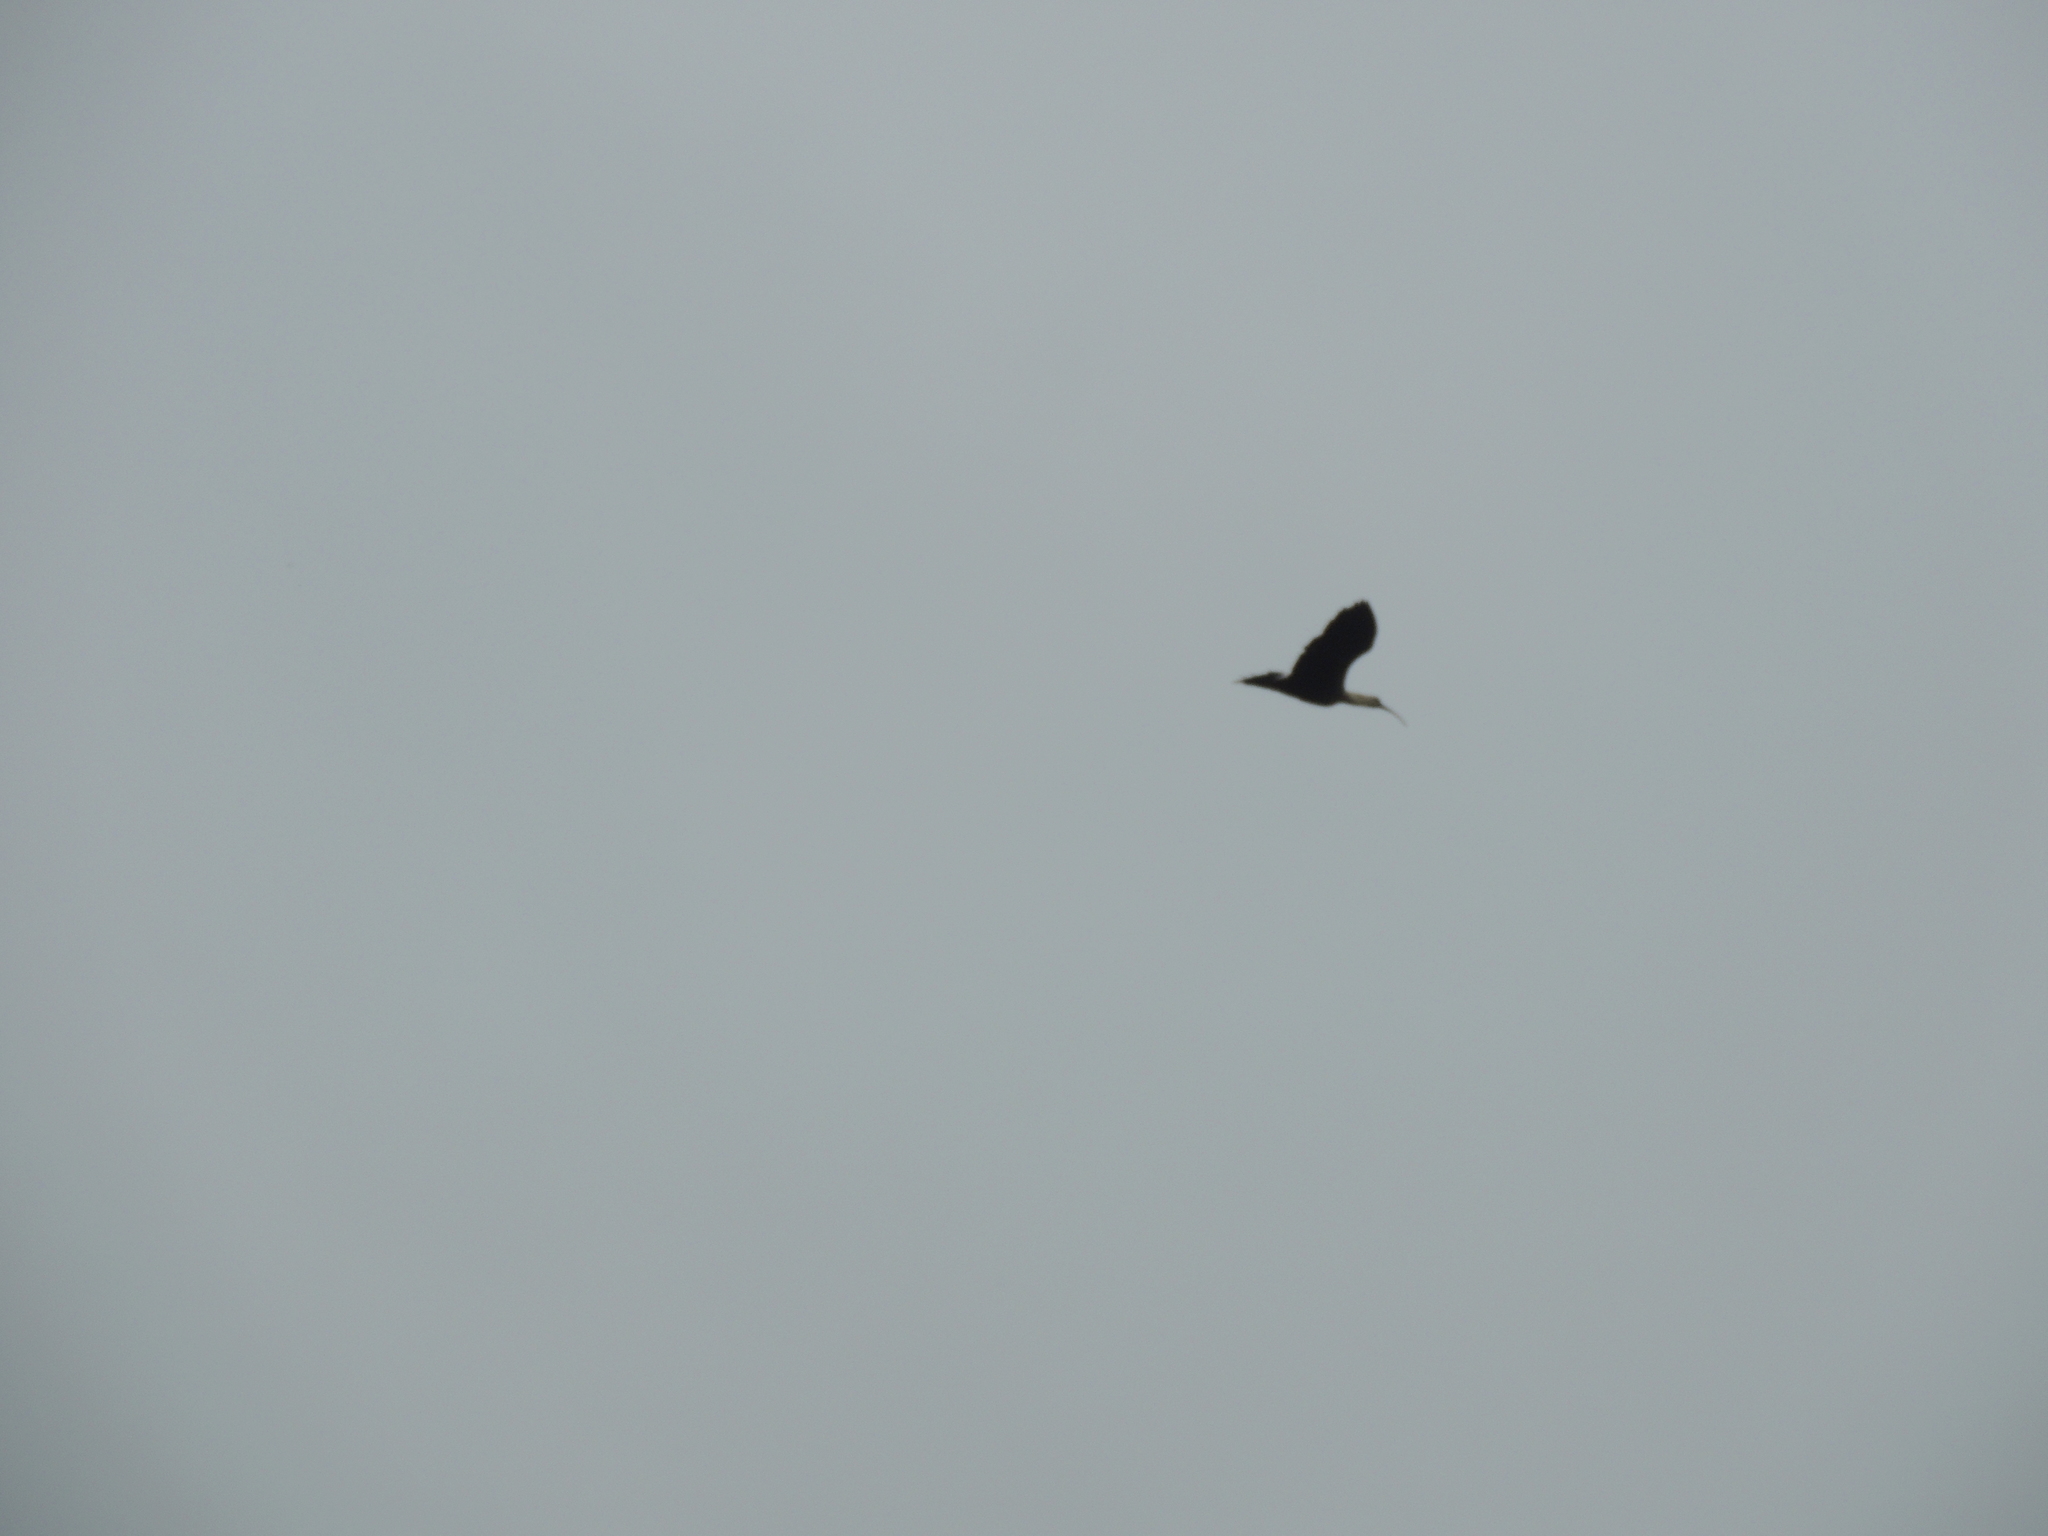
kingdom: Animalia
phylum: Chordata
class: Aves
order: Pelecaniformes
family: Threskiornithidae
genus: Theristicus
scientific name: Theristicus caudatus
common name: Buff-necked ibis
